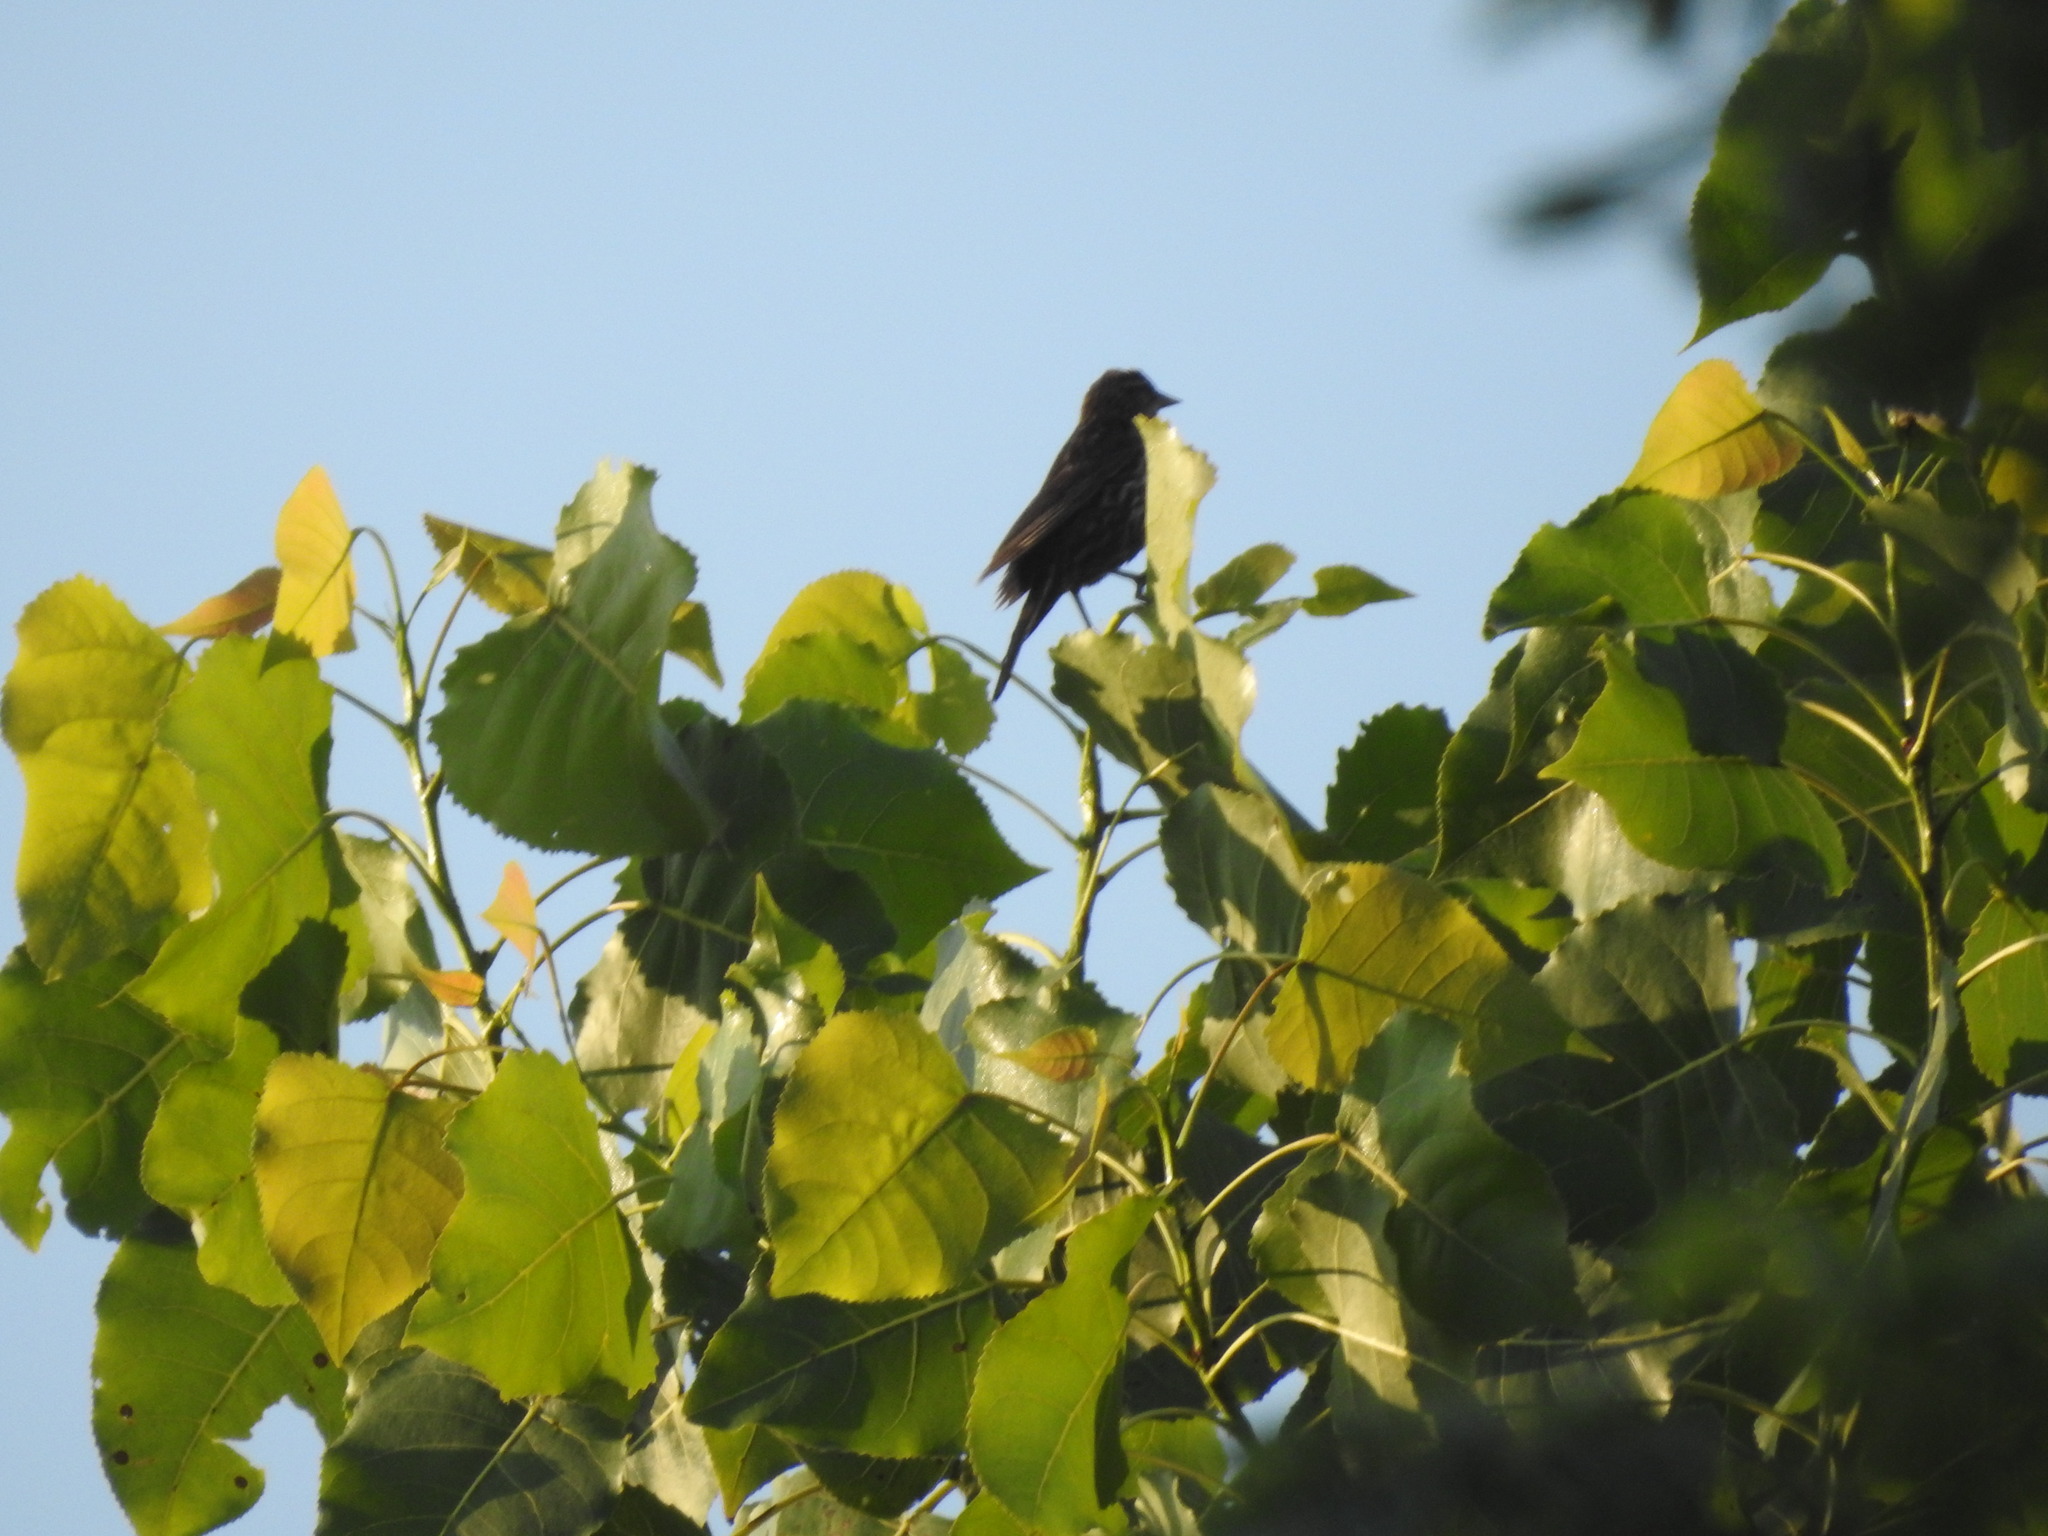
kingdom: Animalia
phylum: Chordata
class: Aves
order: Passeriformes
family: Icteridae
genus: Agelaius
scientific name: Agelaius phoeniceus
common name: Red-winged blackbird
